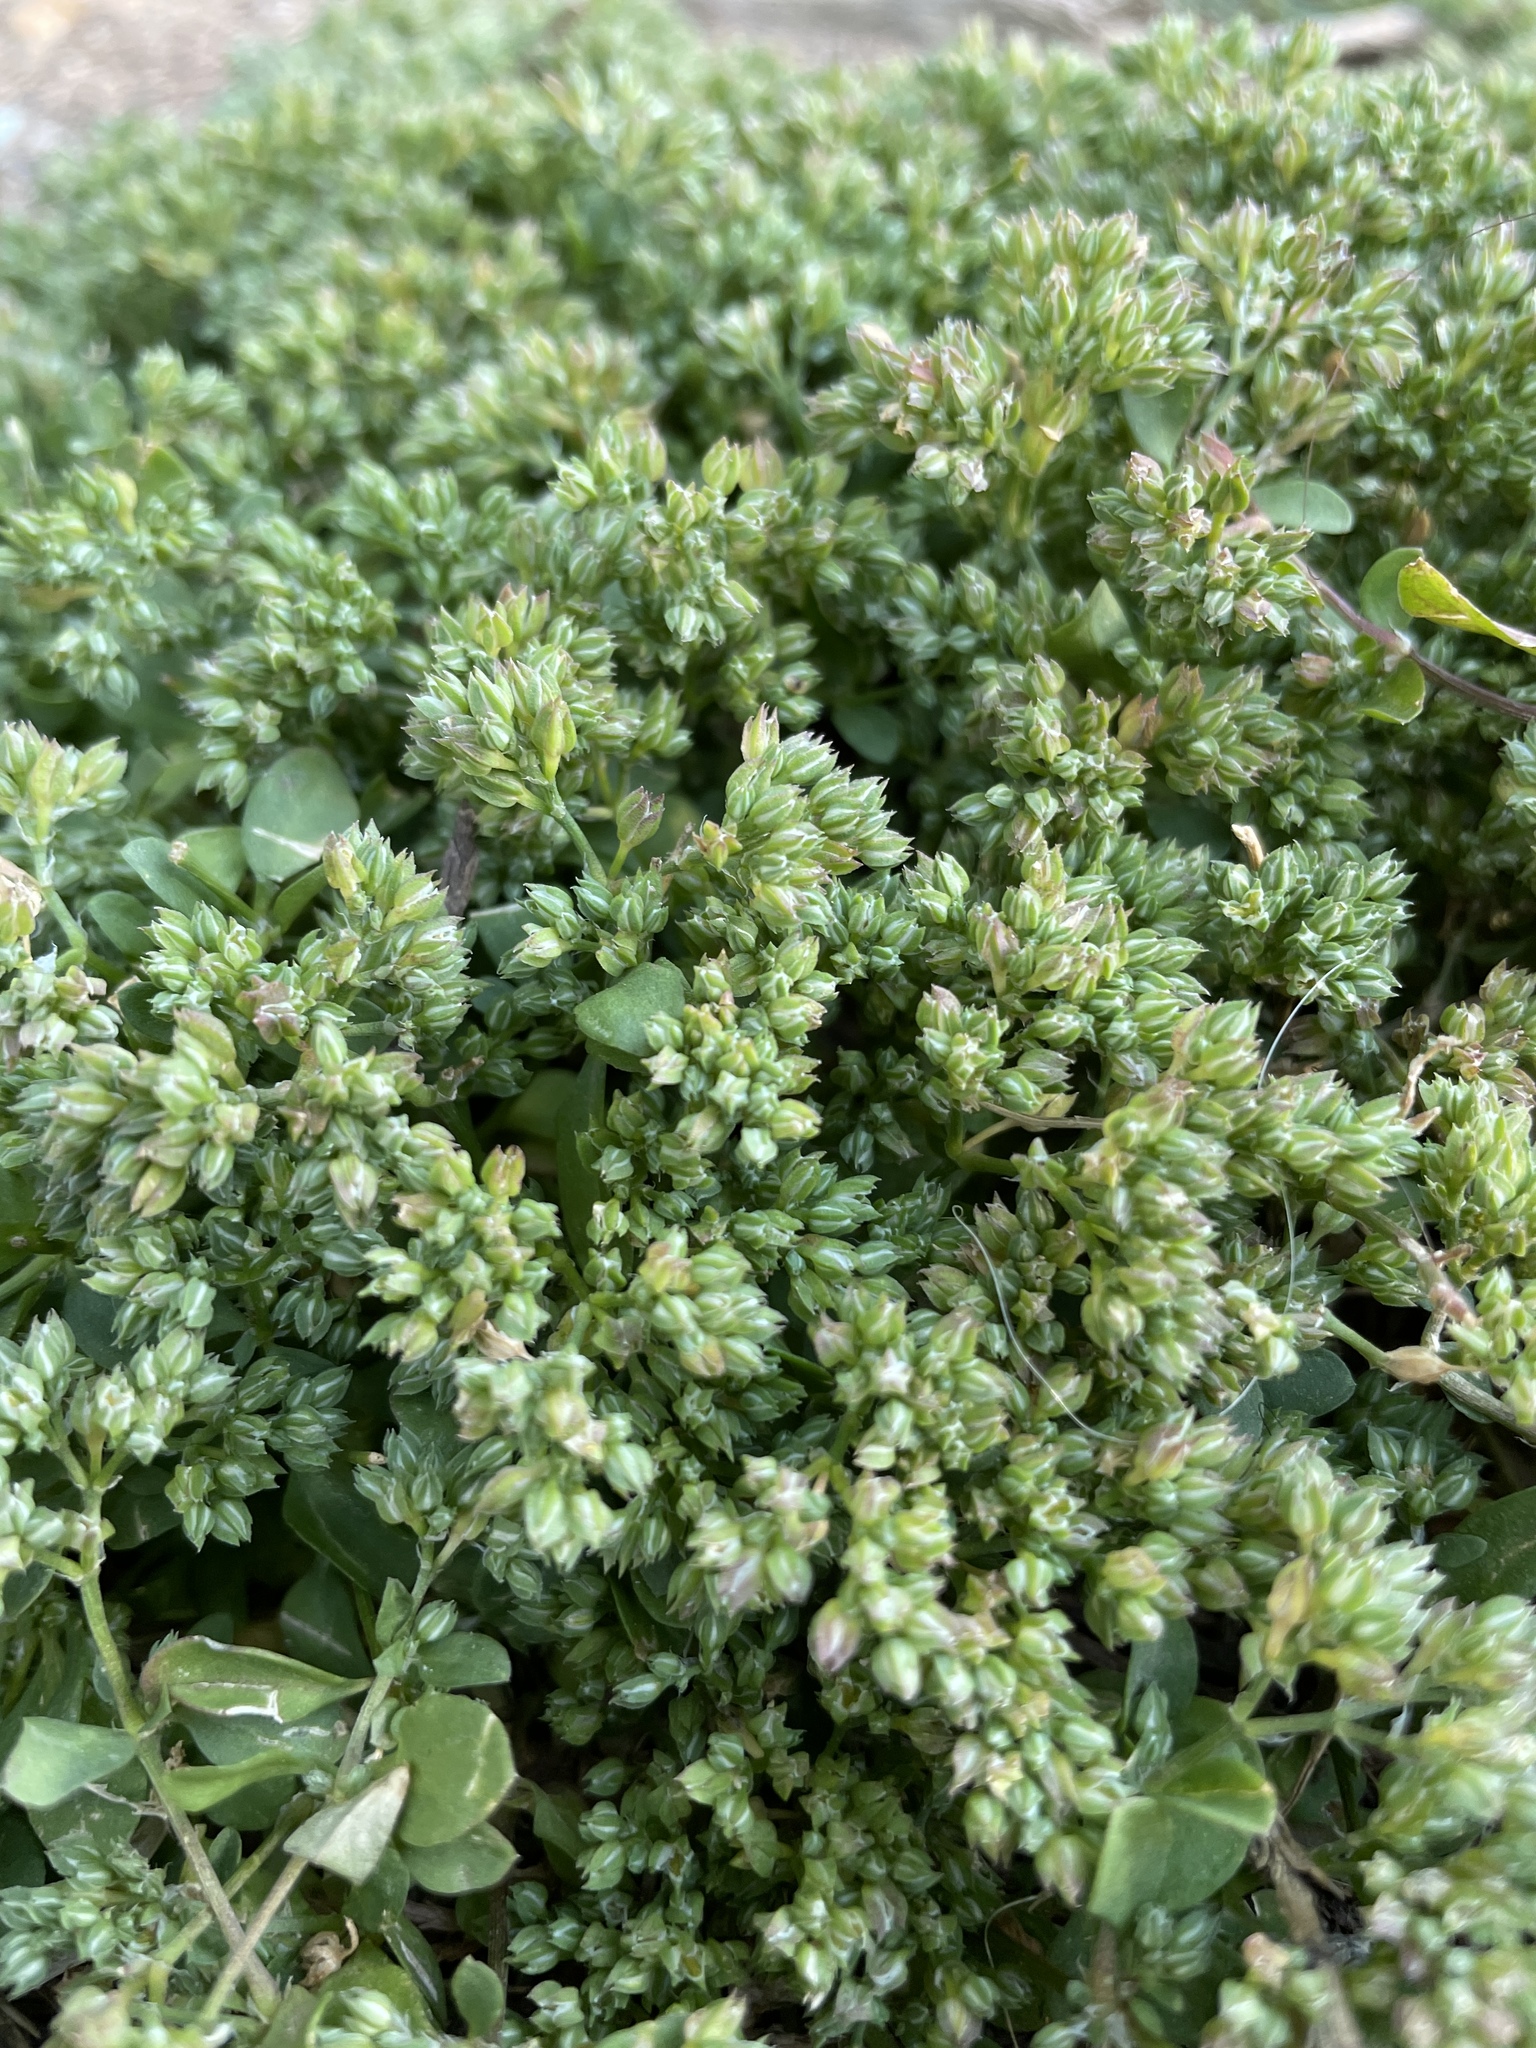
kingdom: Plantae
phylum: Tracheophyta
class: Magnoliopsida
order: Caryophyllales
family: Caryophyllaceae
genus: Polycarpon
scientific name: Polycarpon tetraphyllum
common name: Four-leaved all-seed
